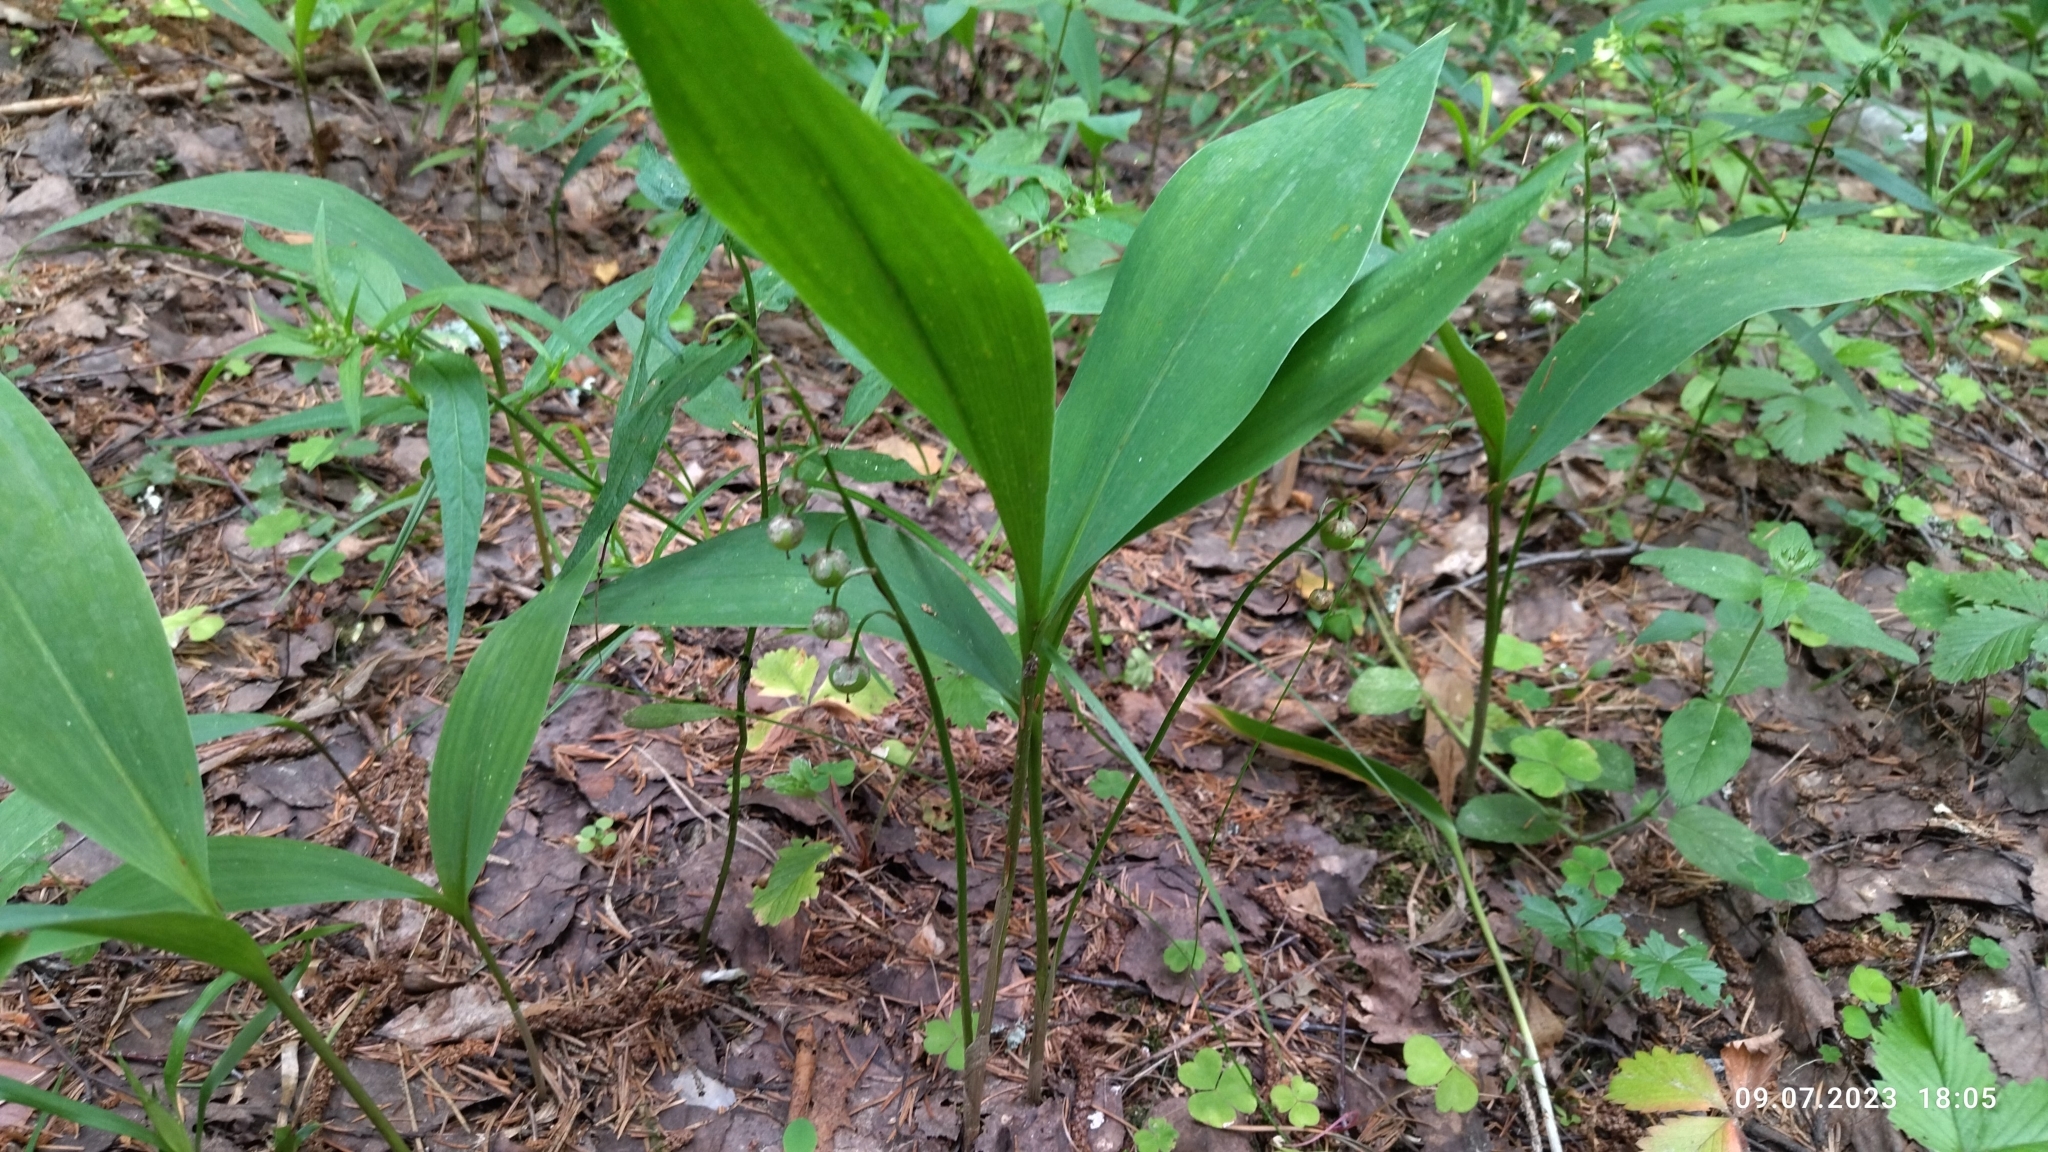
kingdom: Plantae
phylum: Tracheophyta
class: Liliopsida
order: Asparagales
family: Asparagaceae
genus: Convallaria
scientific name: Convallaria majalis
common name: Lily-of-the-valley
